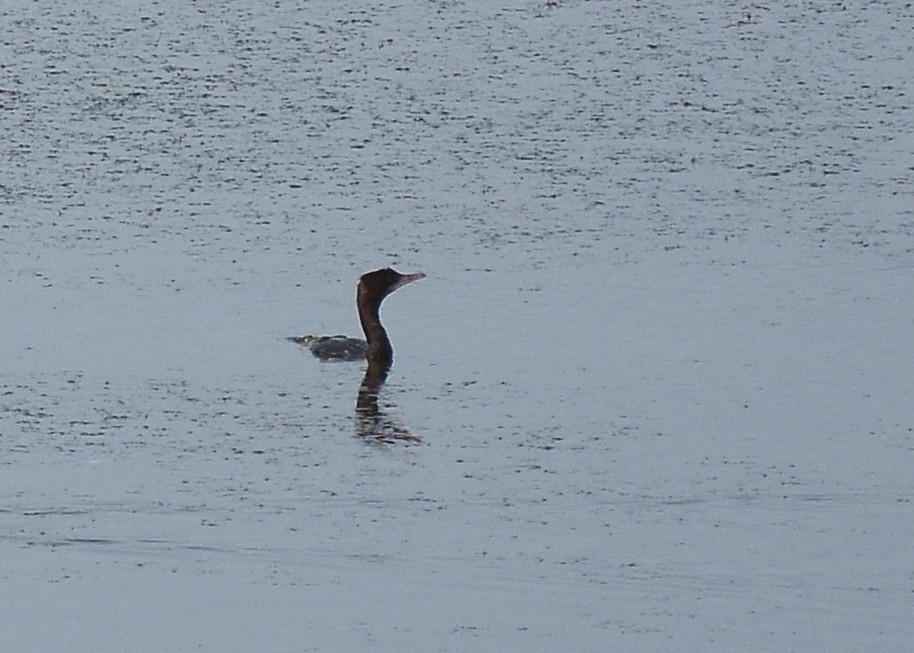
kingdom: Animalia
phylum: Chordata
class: Aves
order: Suliformes
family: Phalacrocoracidae
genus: Microcarbo
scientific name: Microcarbo niger
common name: Little cormorant
